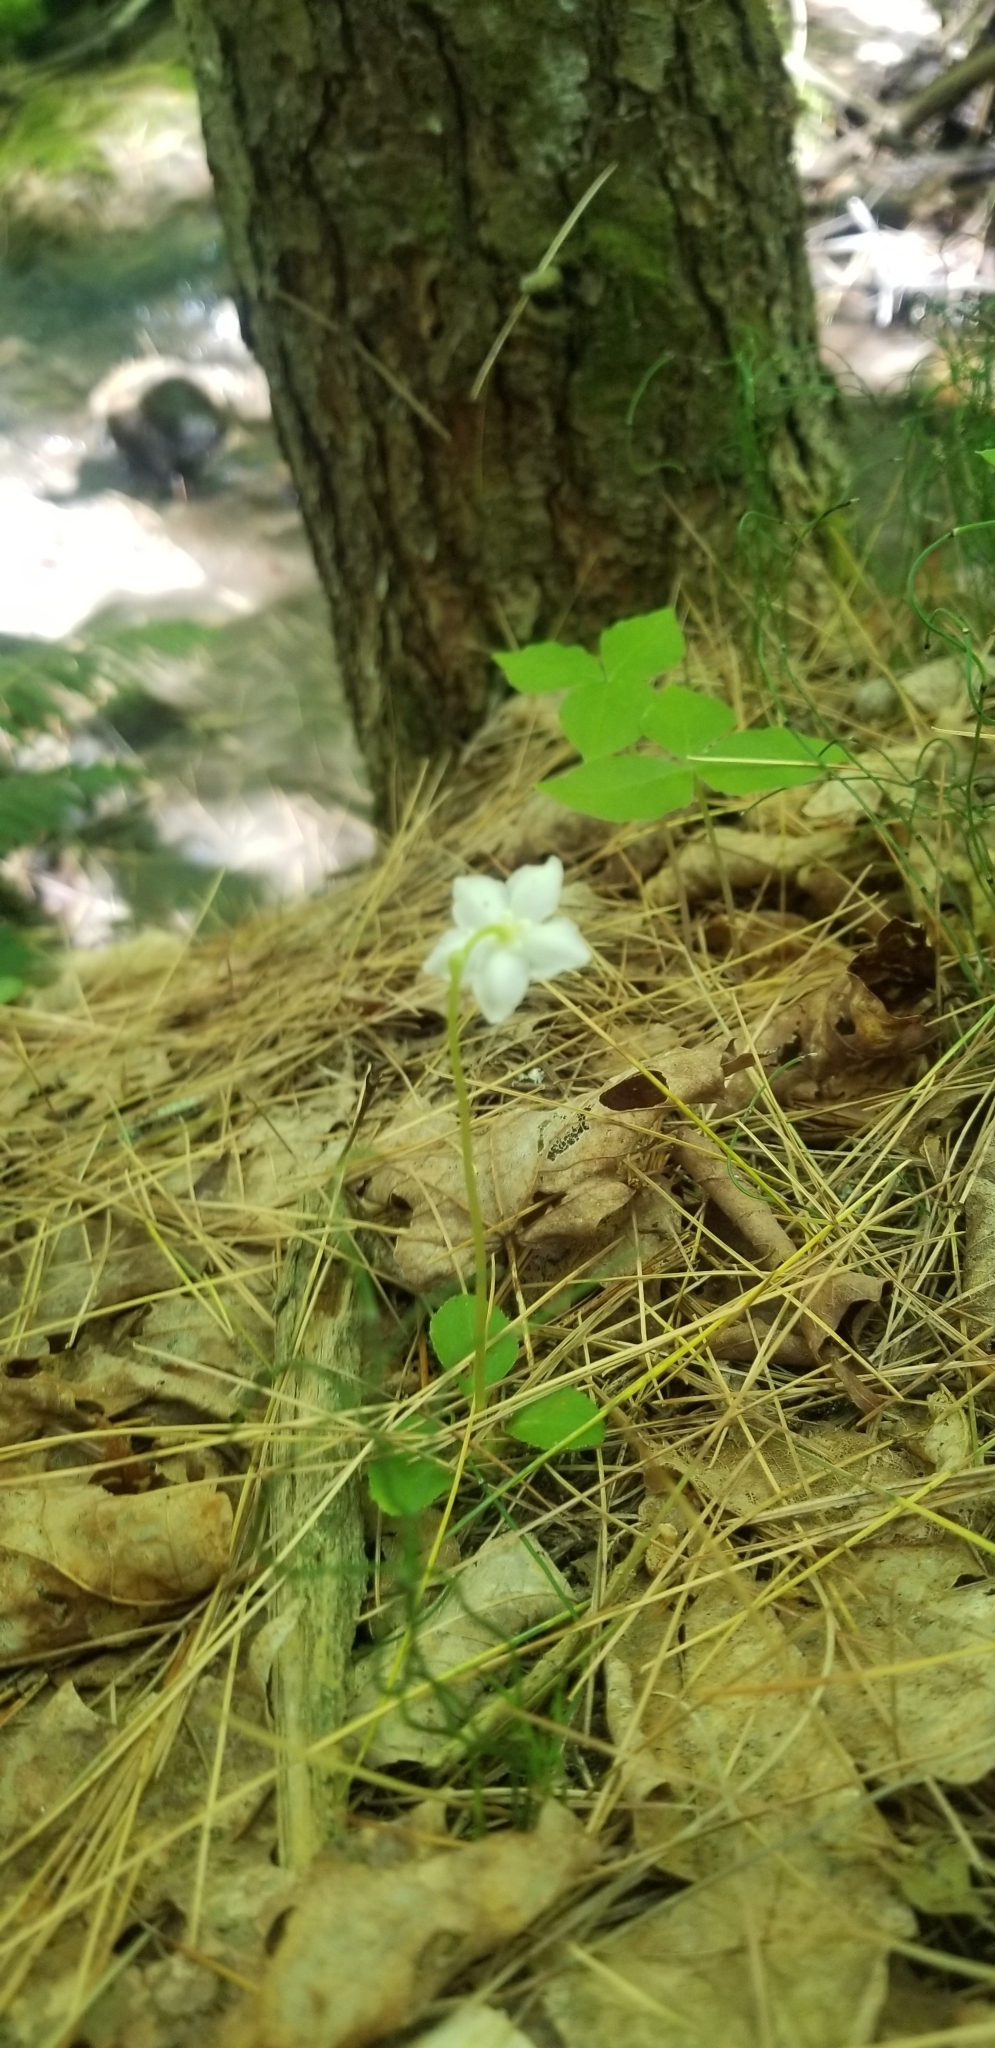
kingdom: Plantae
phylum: Tracheophyta
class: Magnoliopsida
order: Ericales
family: Ericaceae
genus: Moneses
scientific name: Moneses uniflora
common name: One-flowered wintergreen
